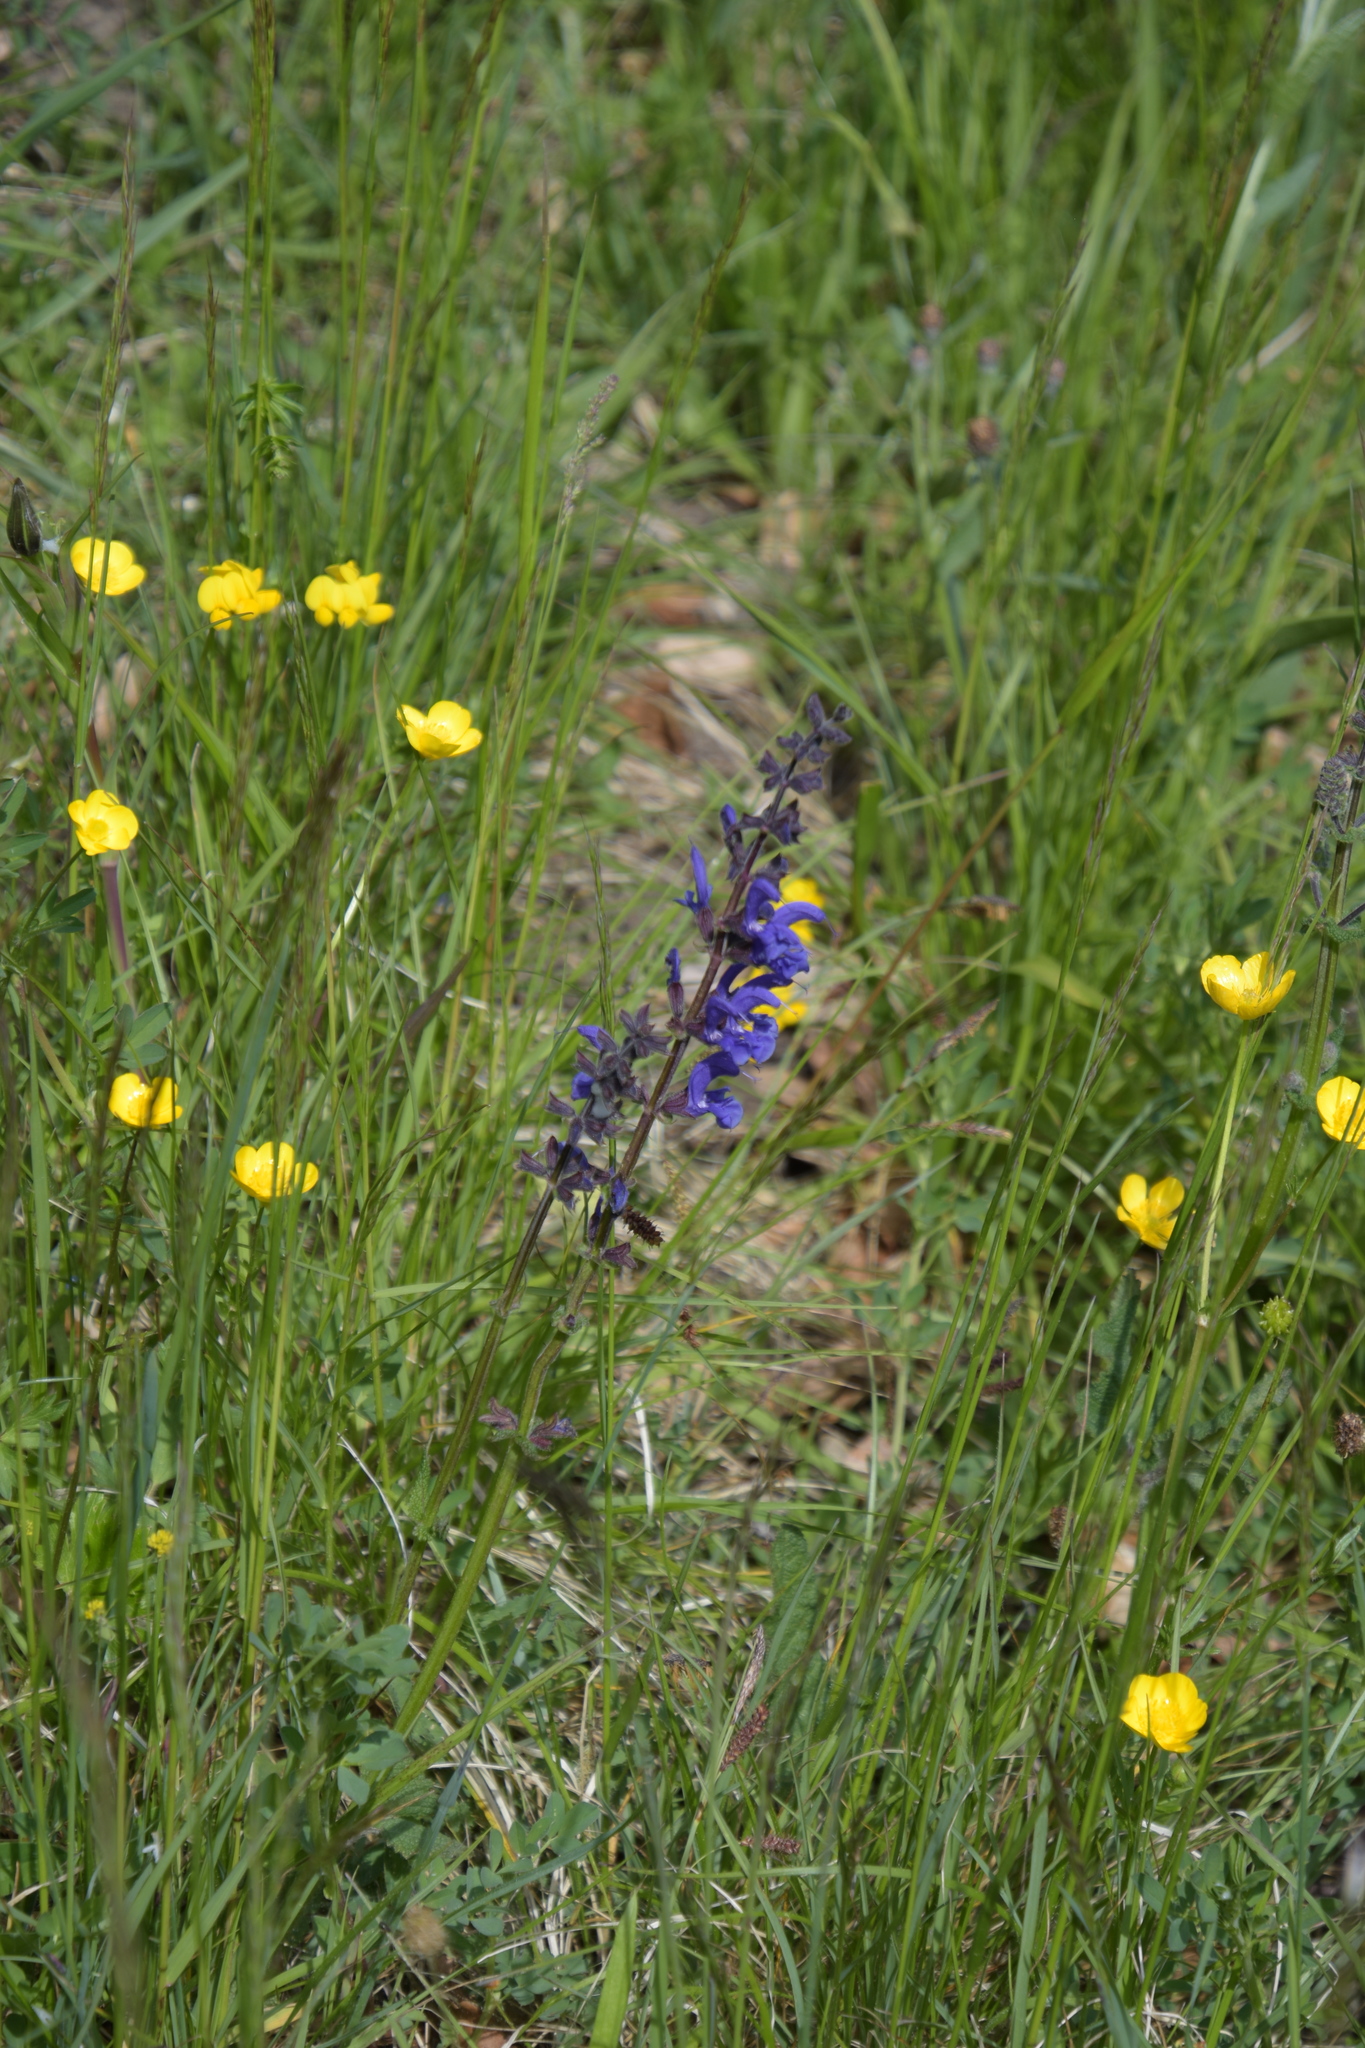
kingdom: Plantae
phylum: Tracheophyta
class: Magnoliopsida
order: Lamiales
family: Lamiaceae
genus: Salvia
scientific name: Salvia pratensis
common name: Meadow sage
